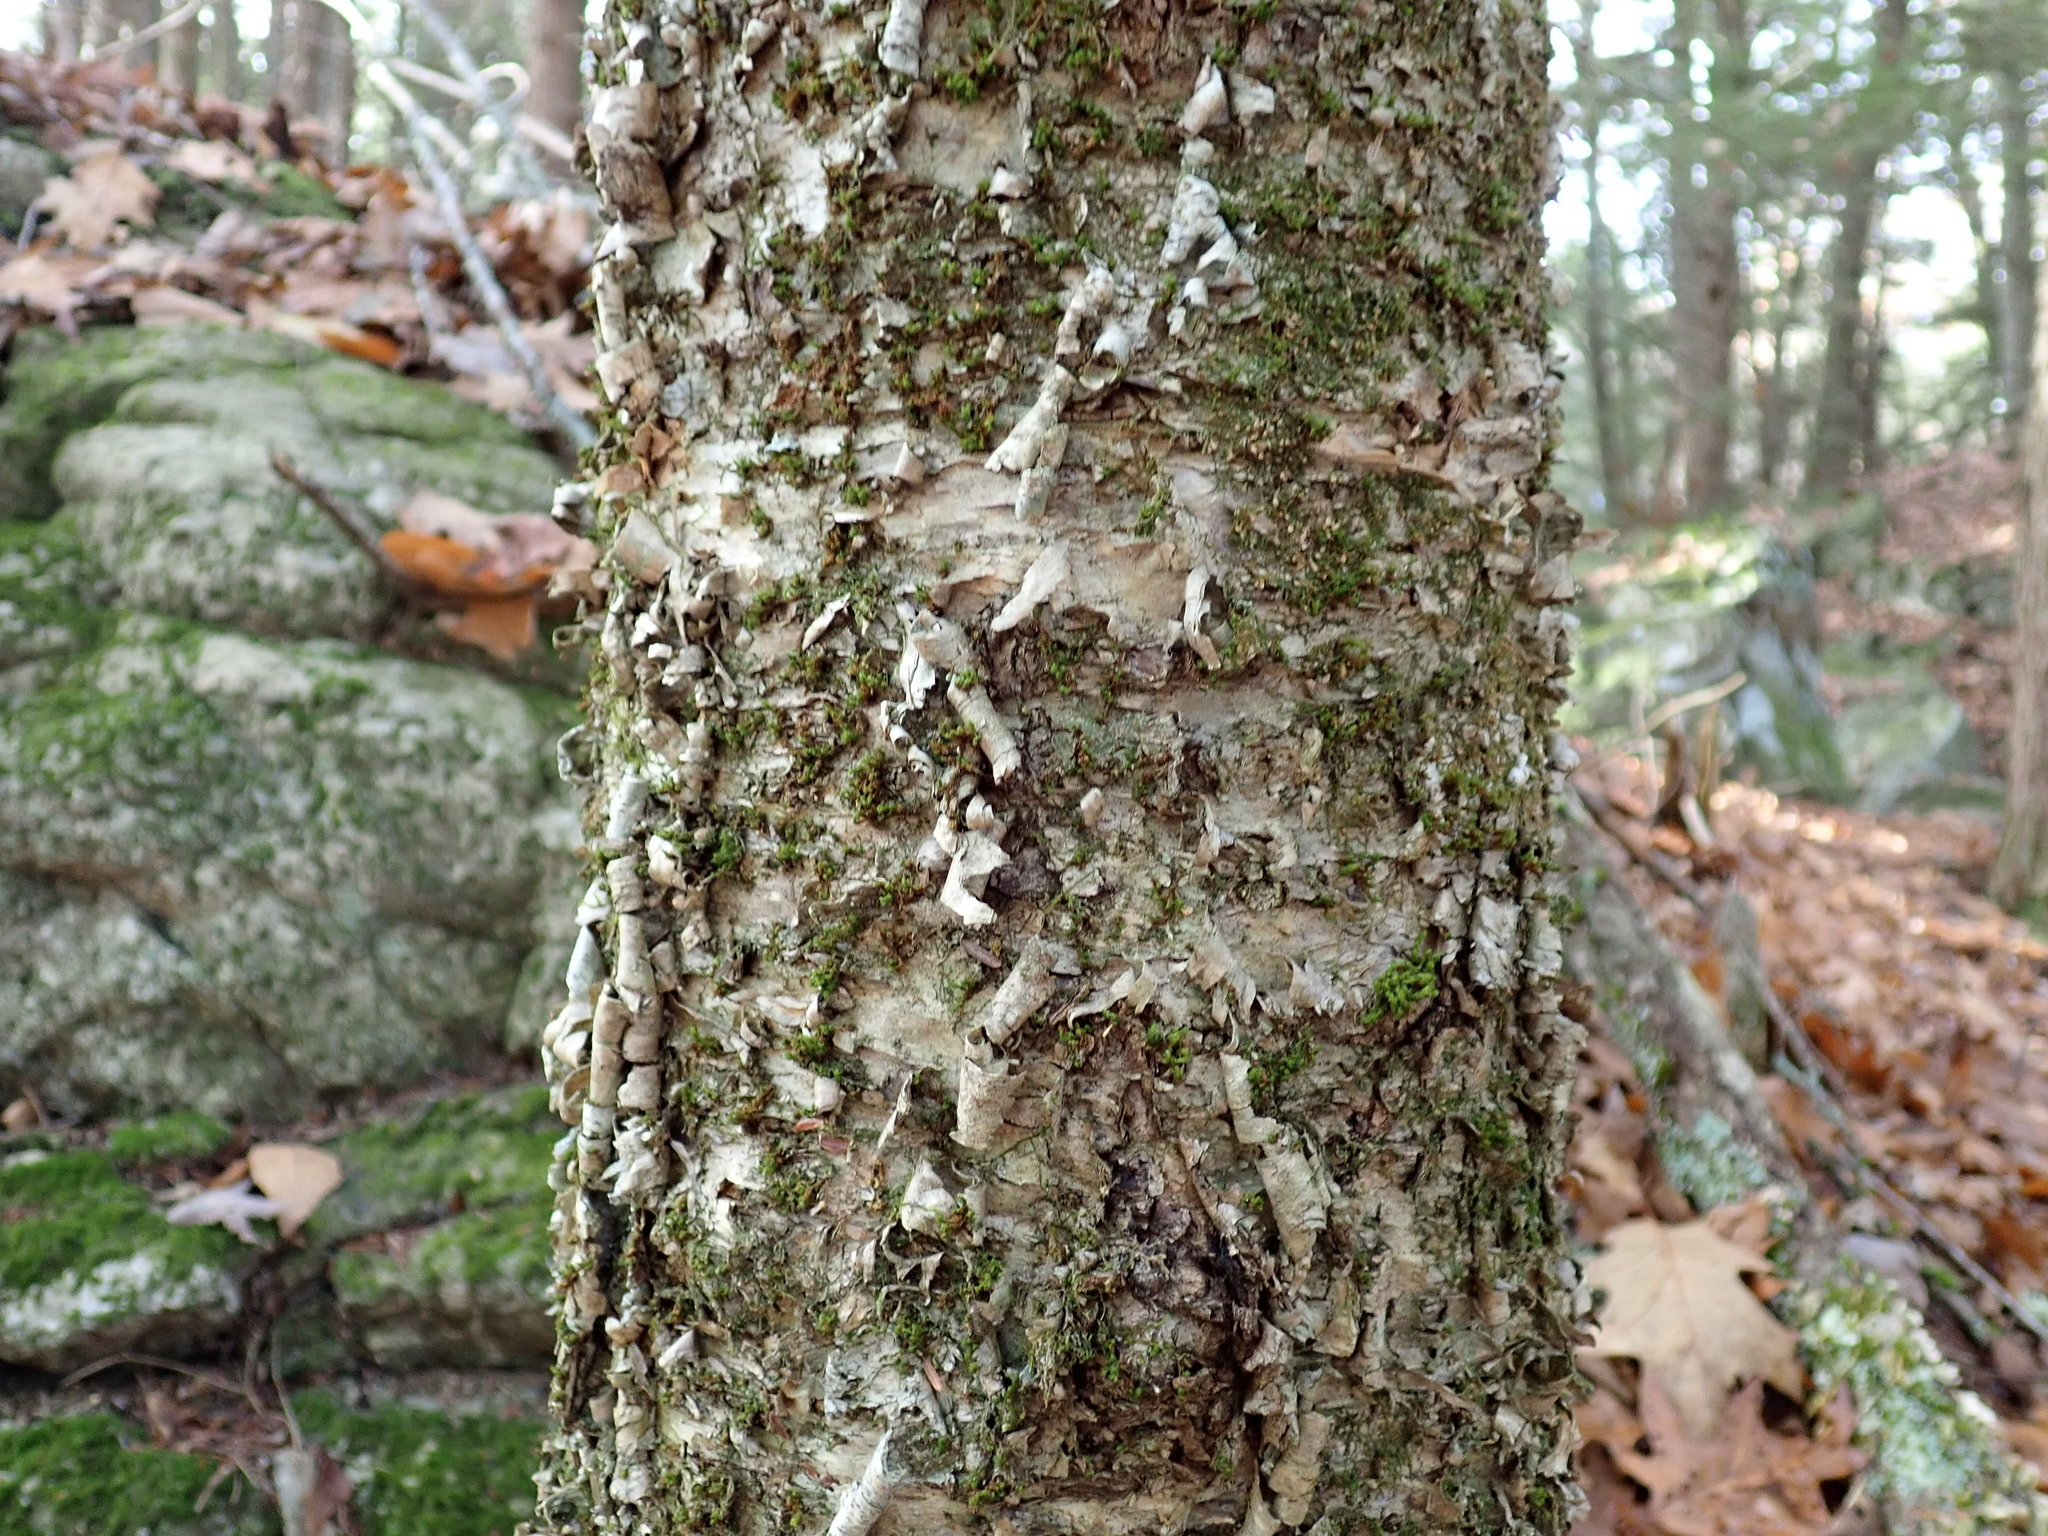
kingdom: Plantae
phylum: Tracheophyta
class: Magnoliopsida
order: Fagales
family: Betulaceae
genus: Betula
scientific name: Betula alleghaniensis
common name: Yellow birch
